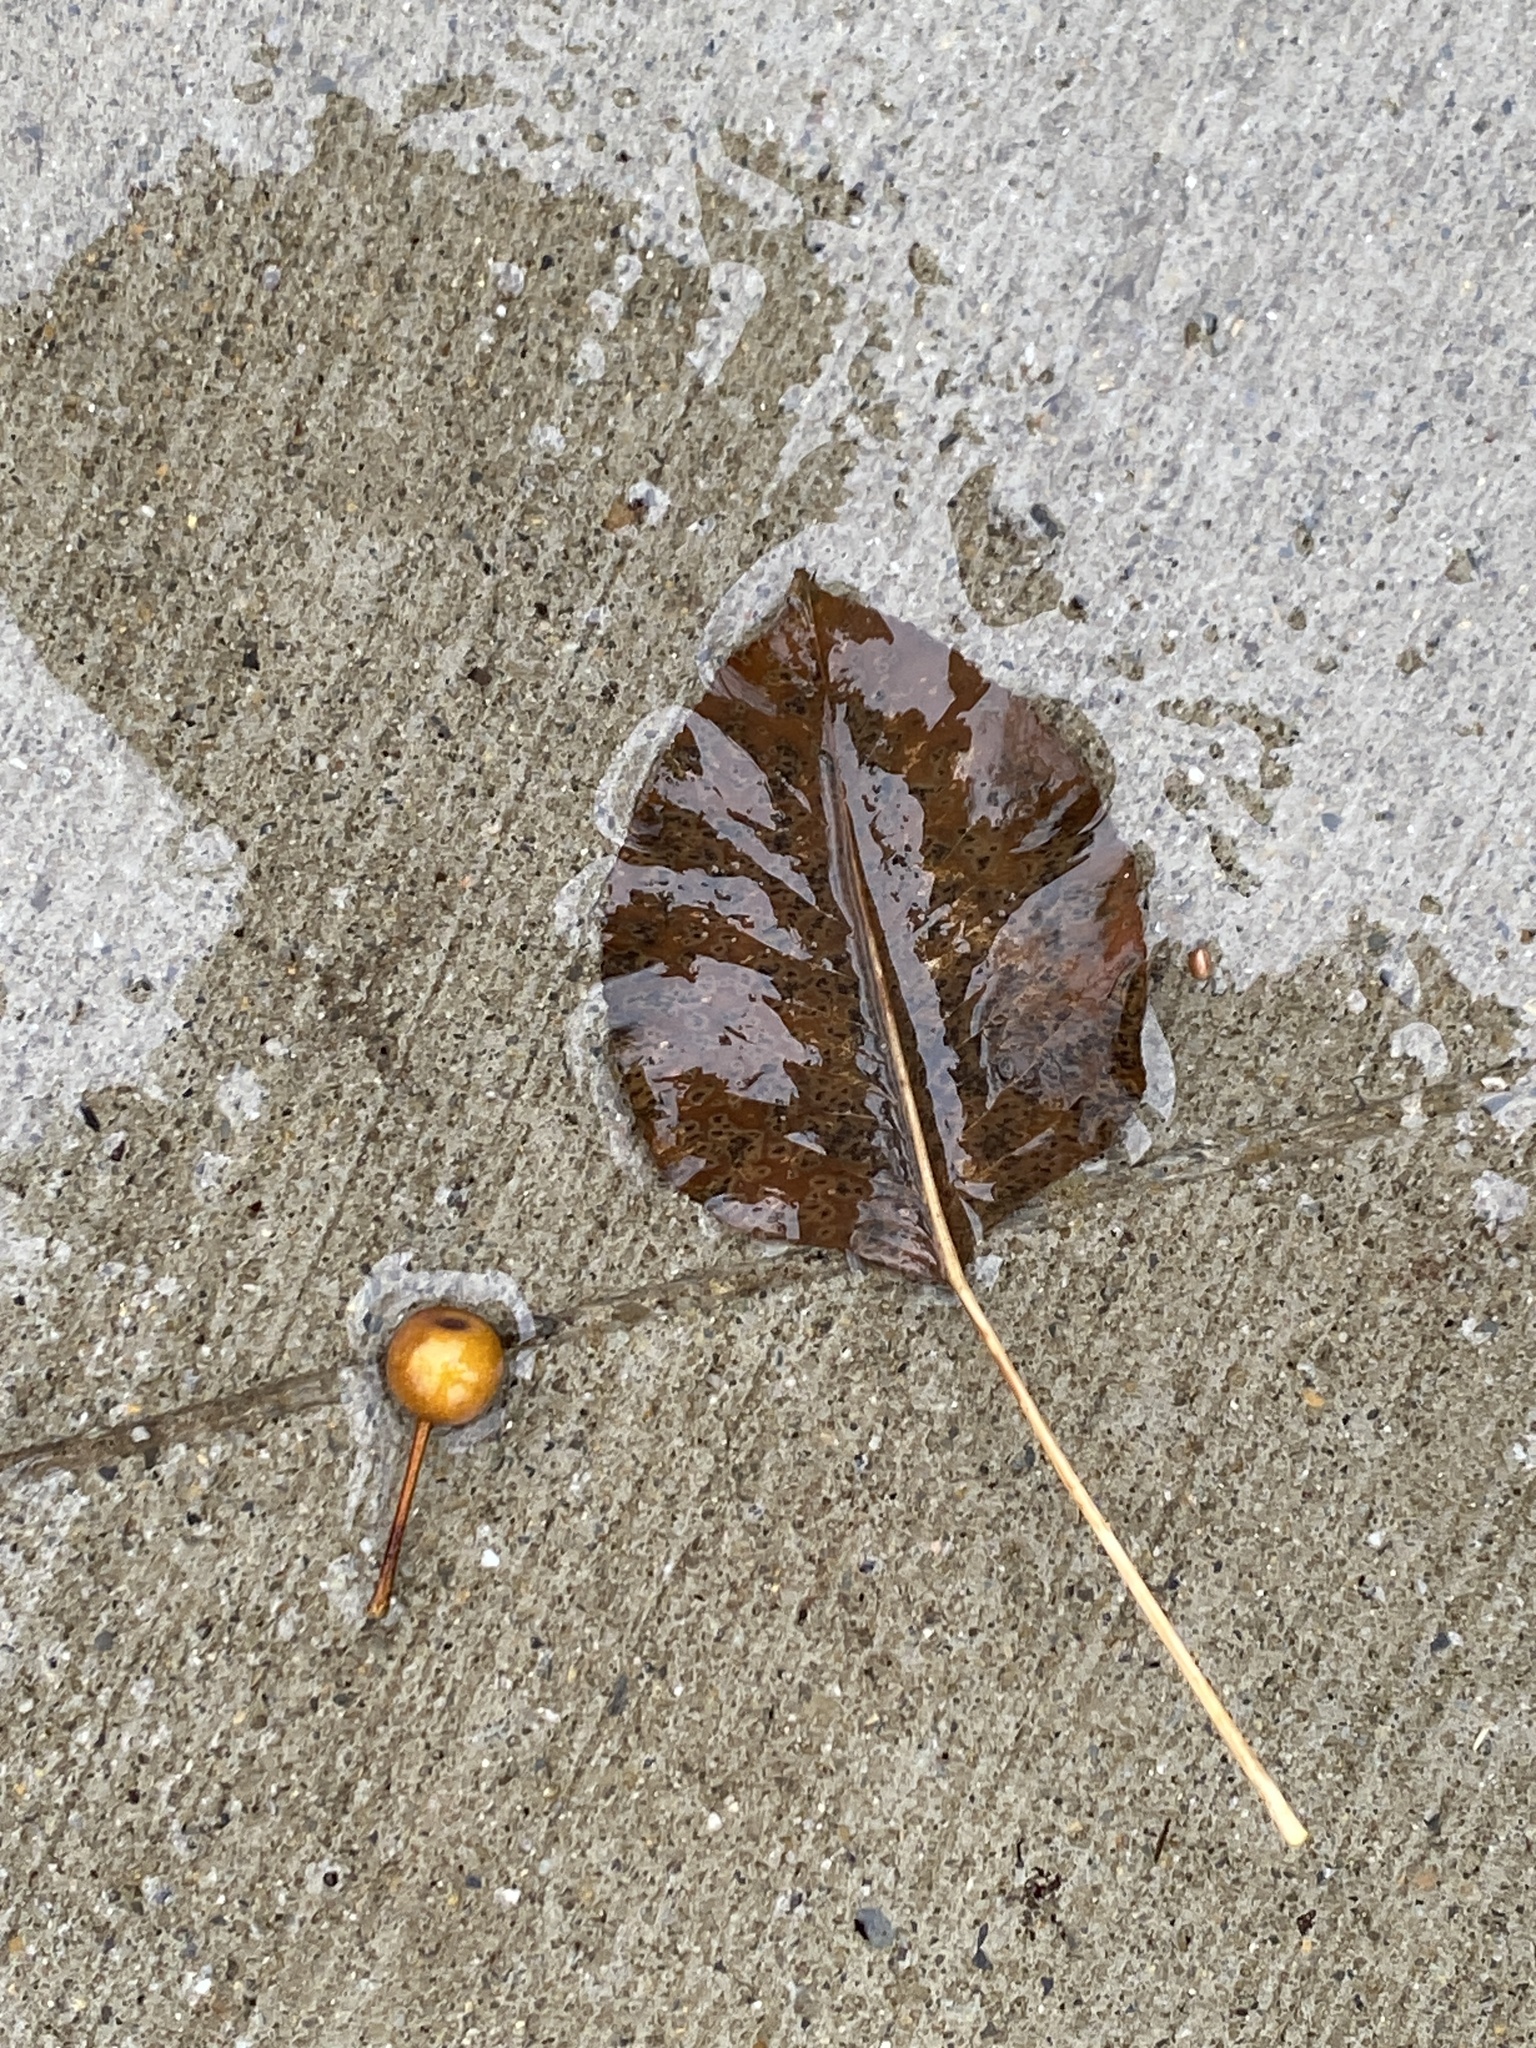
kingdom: Plantae
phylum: Tracheophyta
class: Magnoliopsida
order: Rosales
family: Rosaceae
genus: Pyrus
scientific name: Pyrus calleryana
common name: Callery pear
